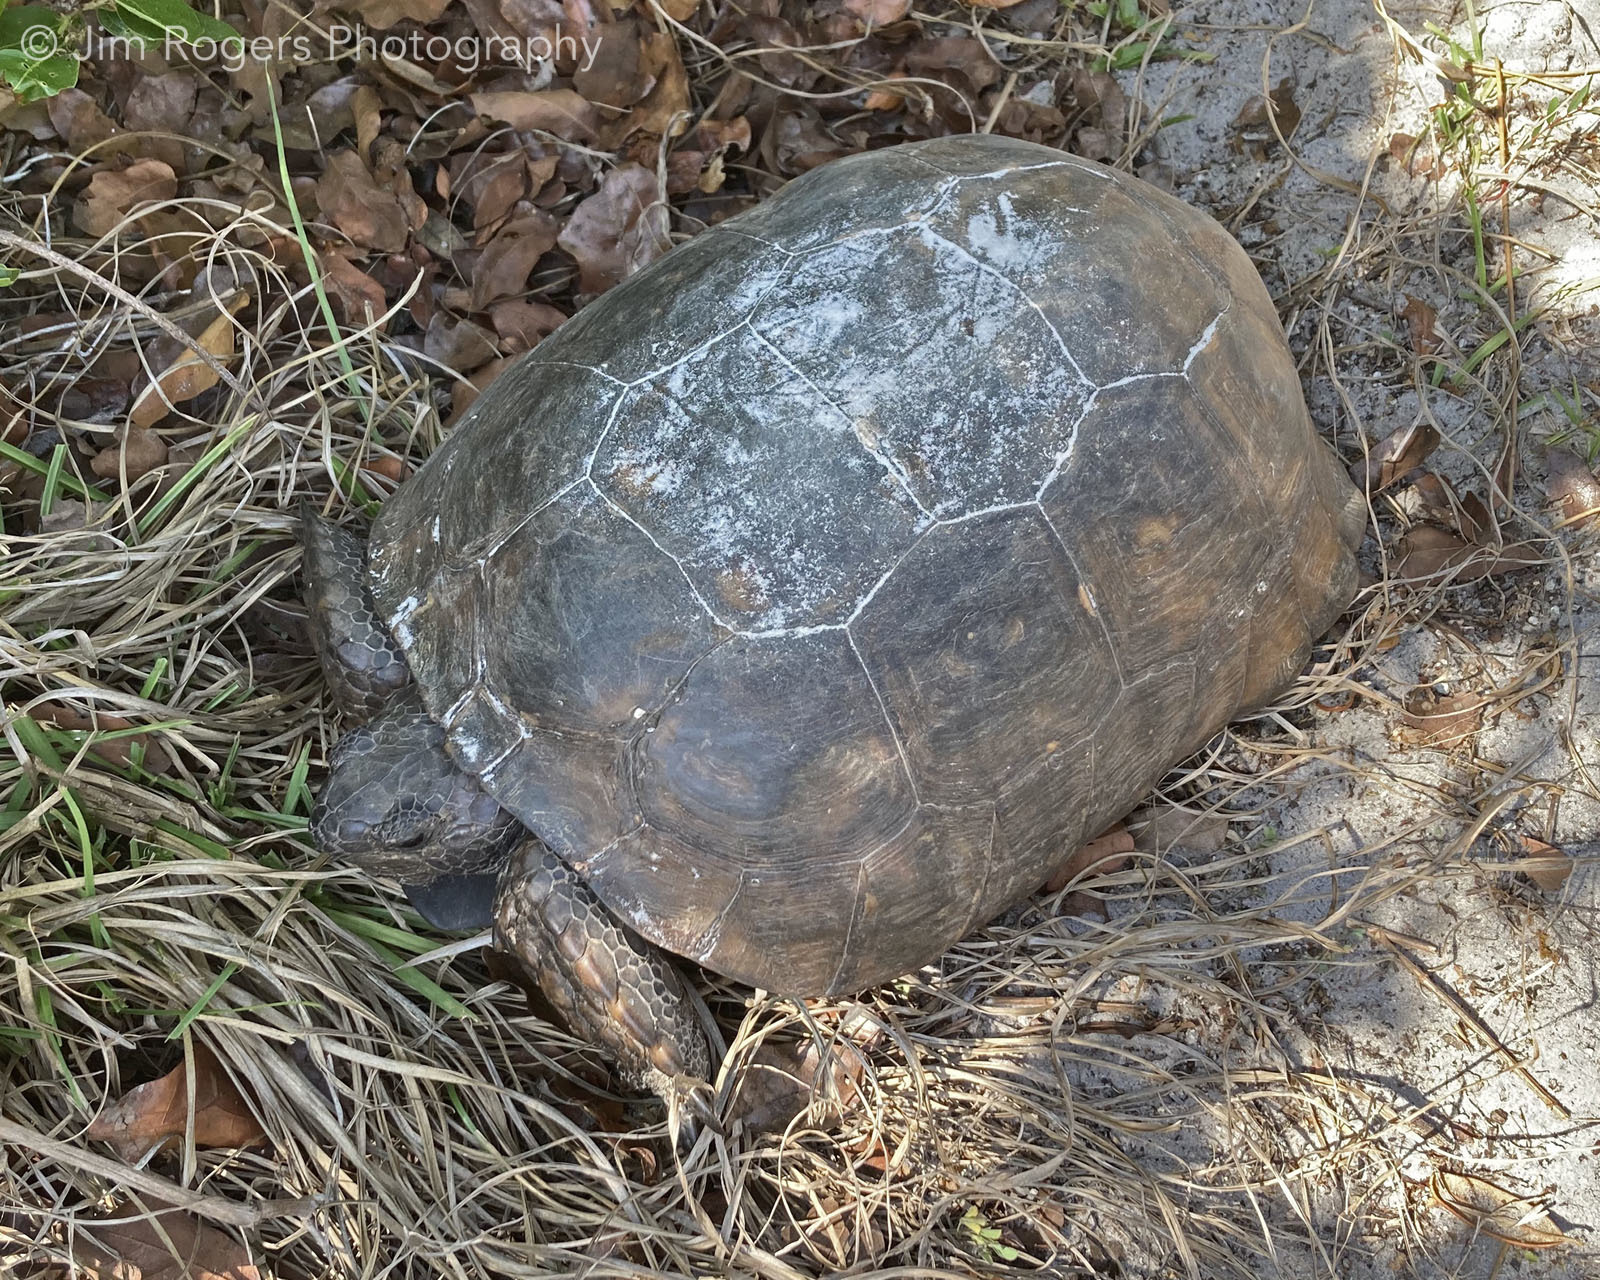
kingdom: Animalia
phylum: Chordata
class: Testudines
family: Testudinidae
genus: Gopherus
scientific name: Gopherus polyphemus
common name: Florida gopher tortoise
